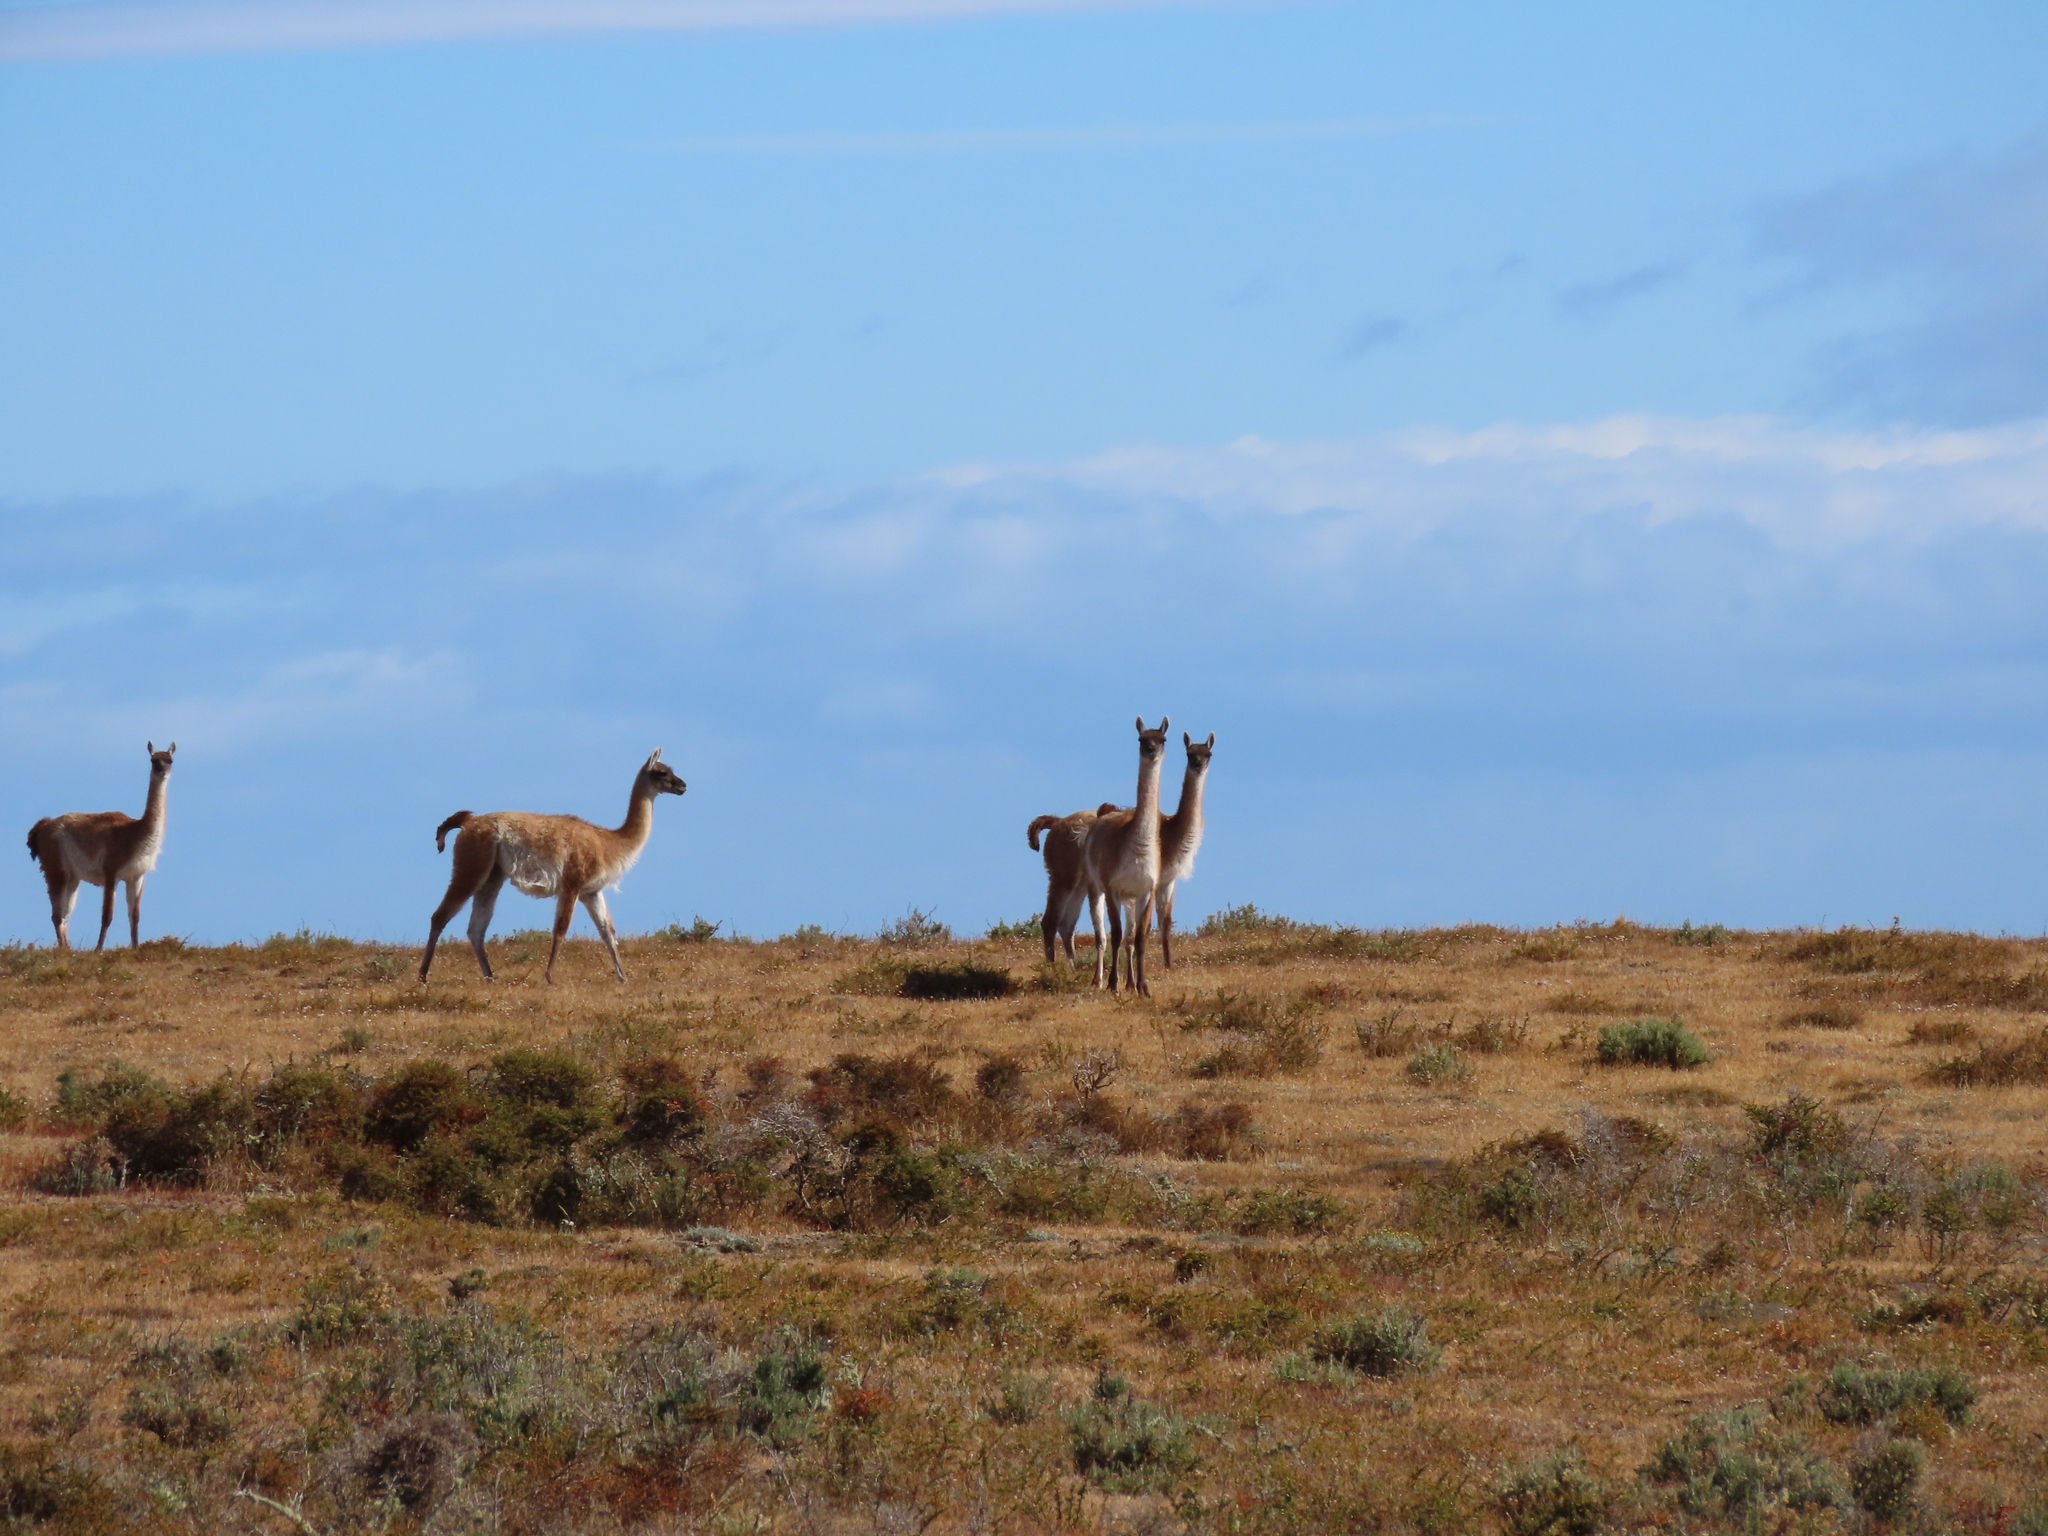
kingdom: Animalia
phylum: Chordata
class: Mammalia
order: Artiodactyla
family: Camelidae
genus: Lama
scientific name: Lama glama
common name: Llama
